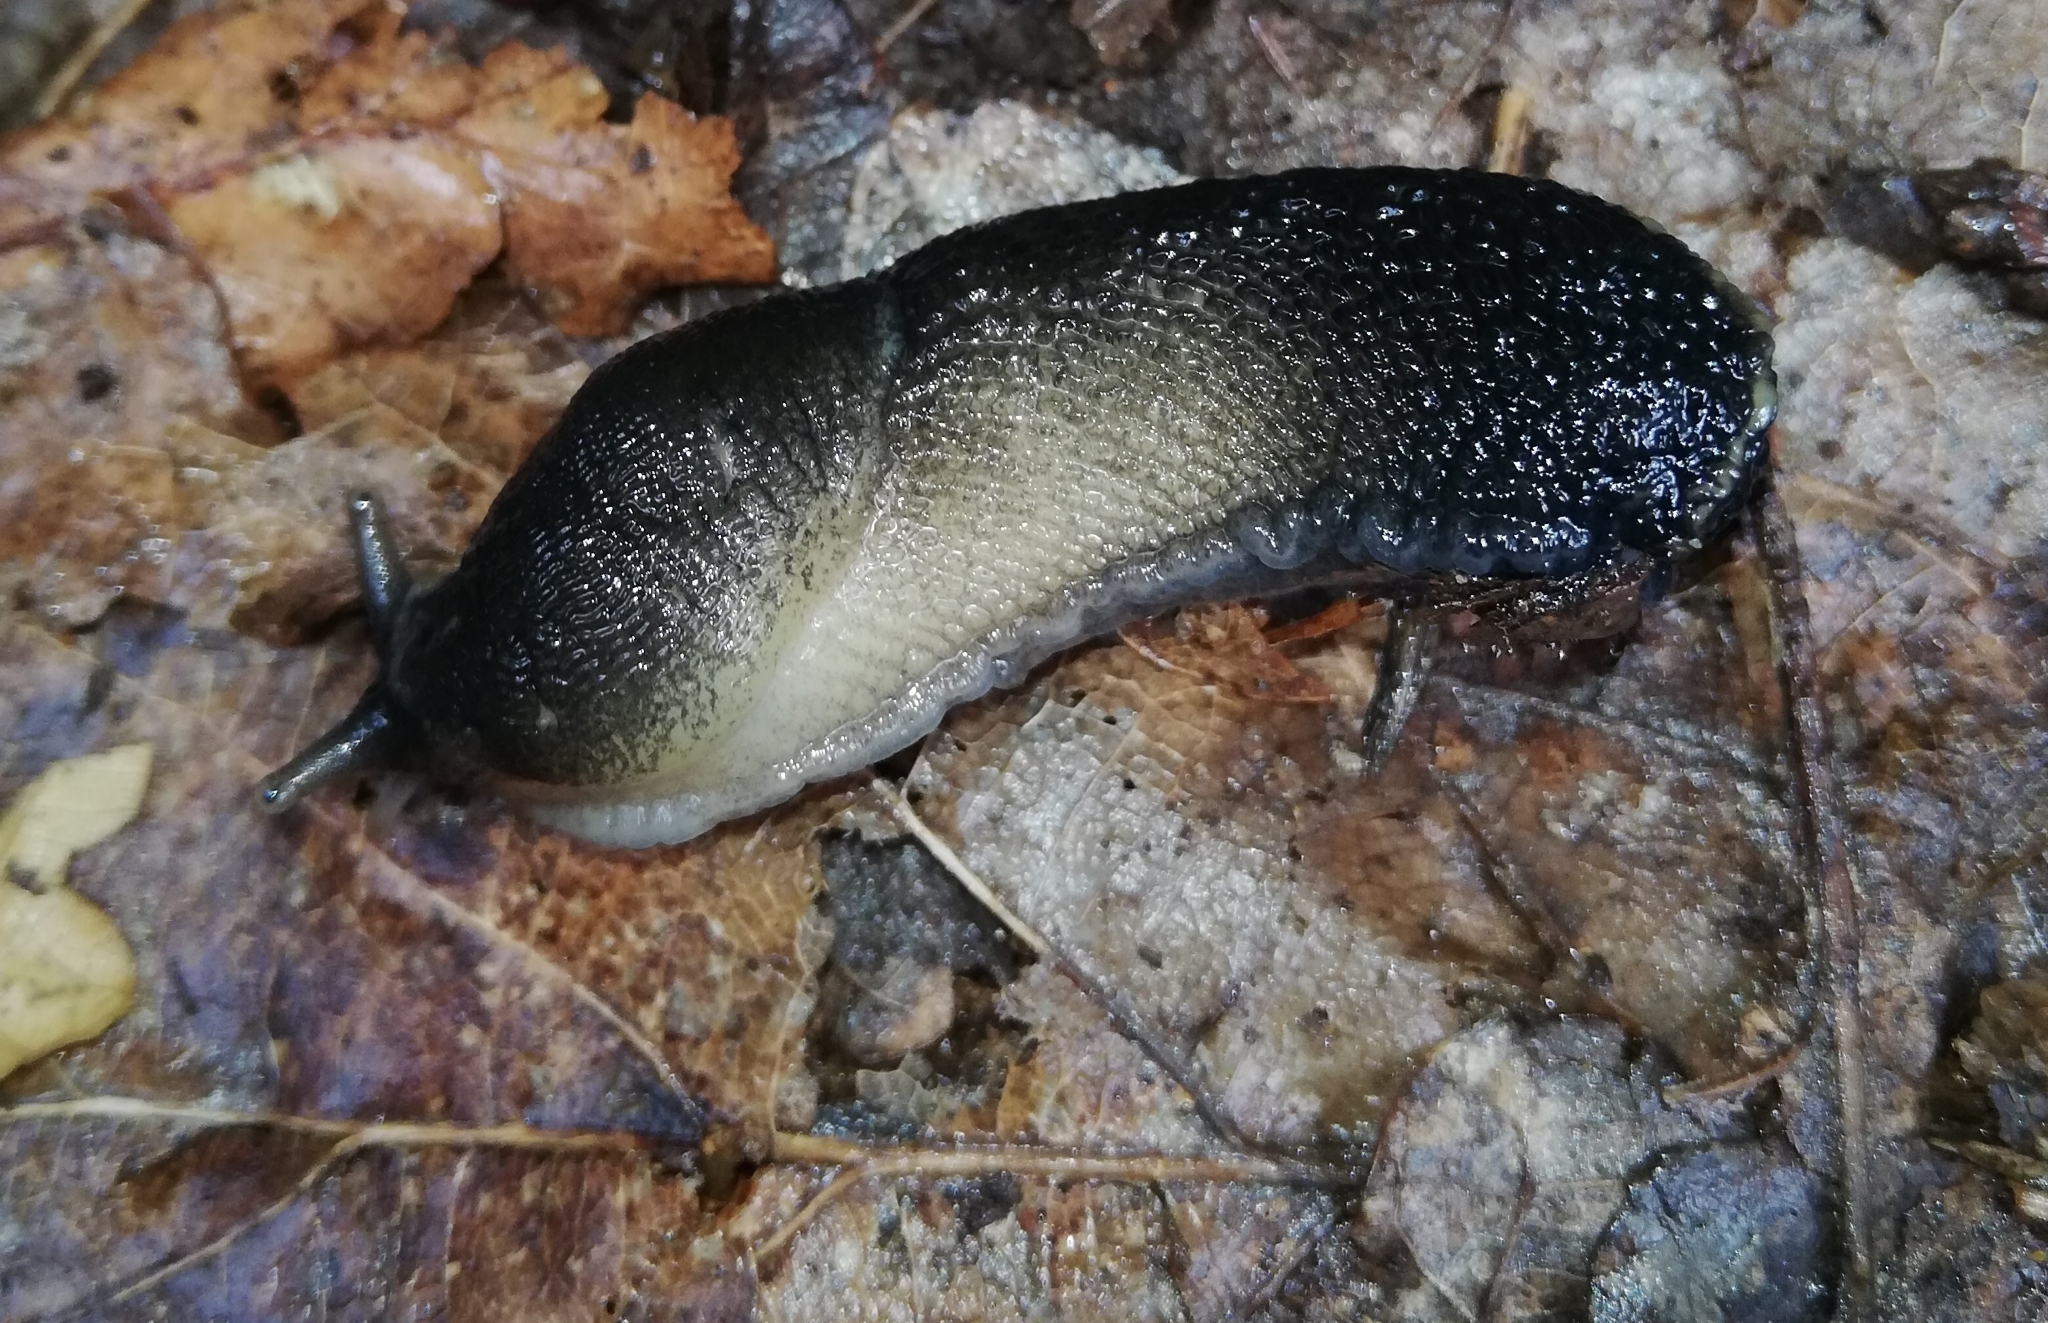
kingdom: Animalia
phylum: Mollusca
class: Gastropoda
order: Stylommatophora
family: Limacidae
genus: Limax
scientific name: Limax cinereoniger
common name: Ash-black slug
